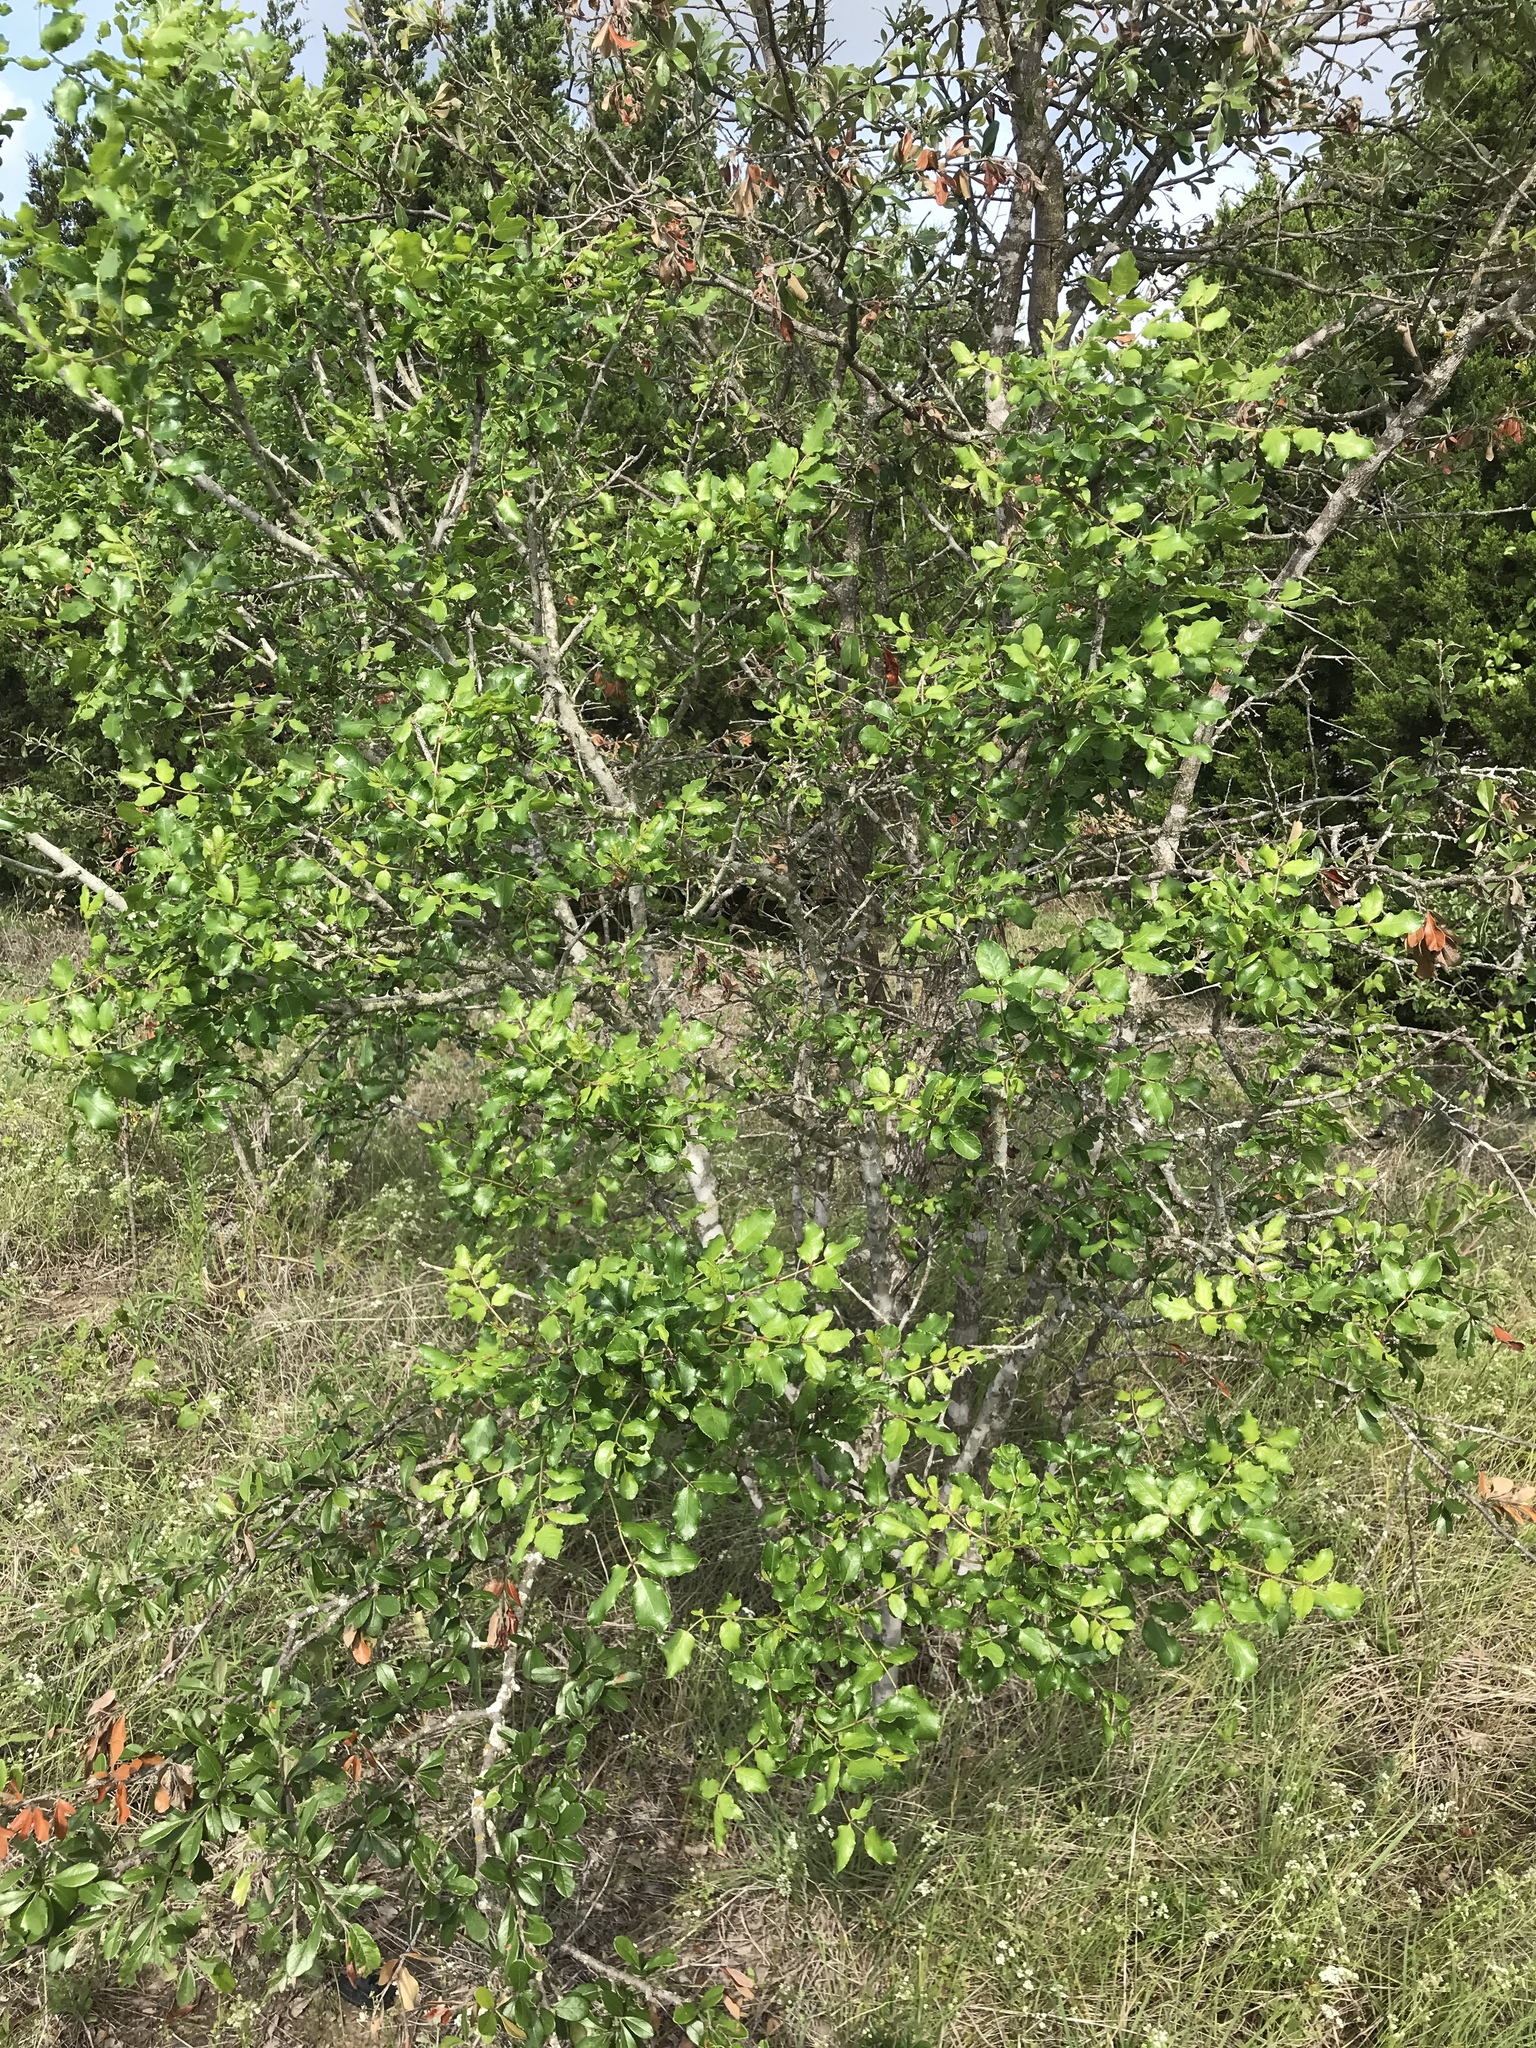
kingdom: Plantae
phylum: Tracheophyta
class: Magnoliopsida
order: Sapindales
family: Rutaceae
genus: Zanthoxylum
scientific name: Zanthoxylum clava-herculis
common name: Hercules'-club
